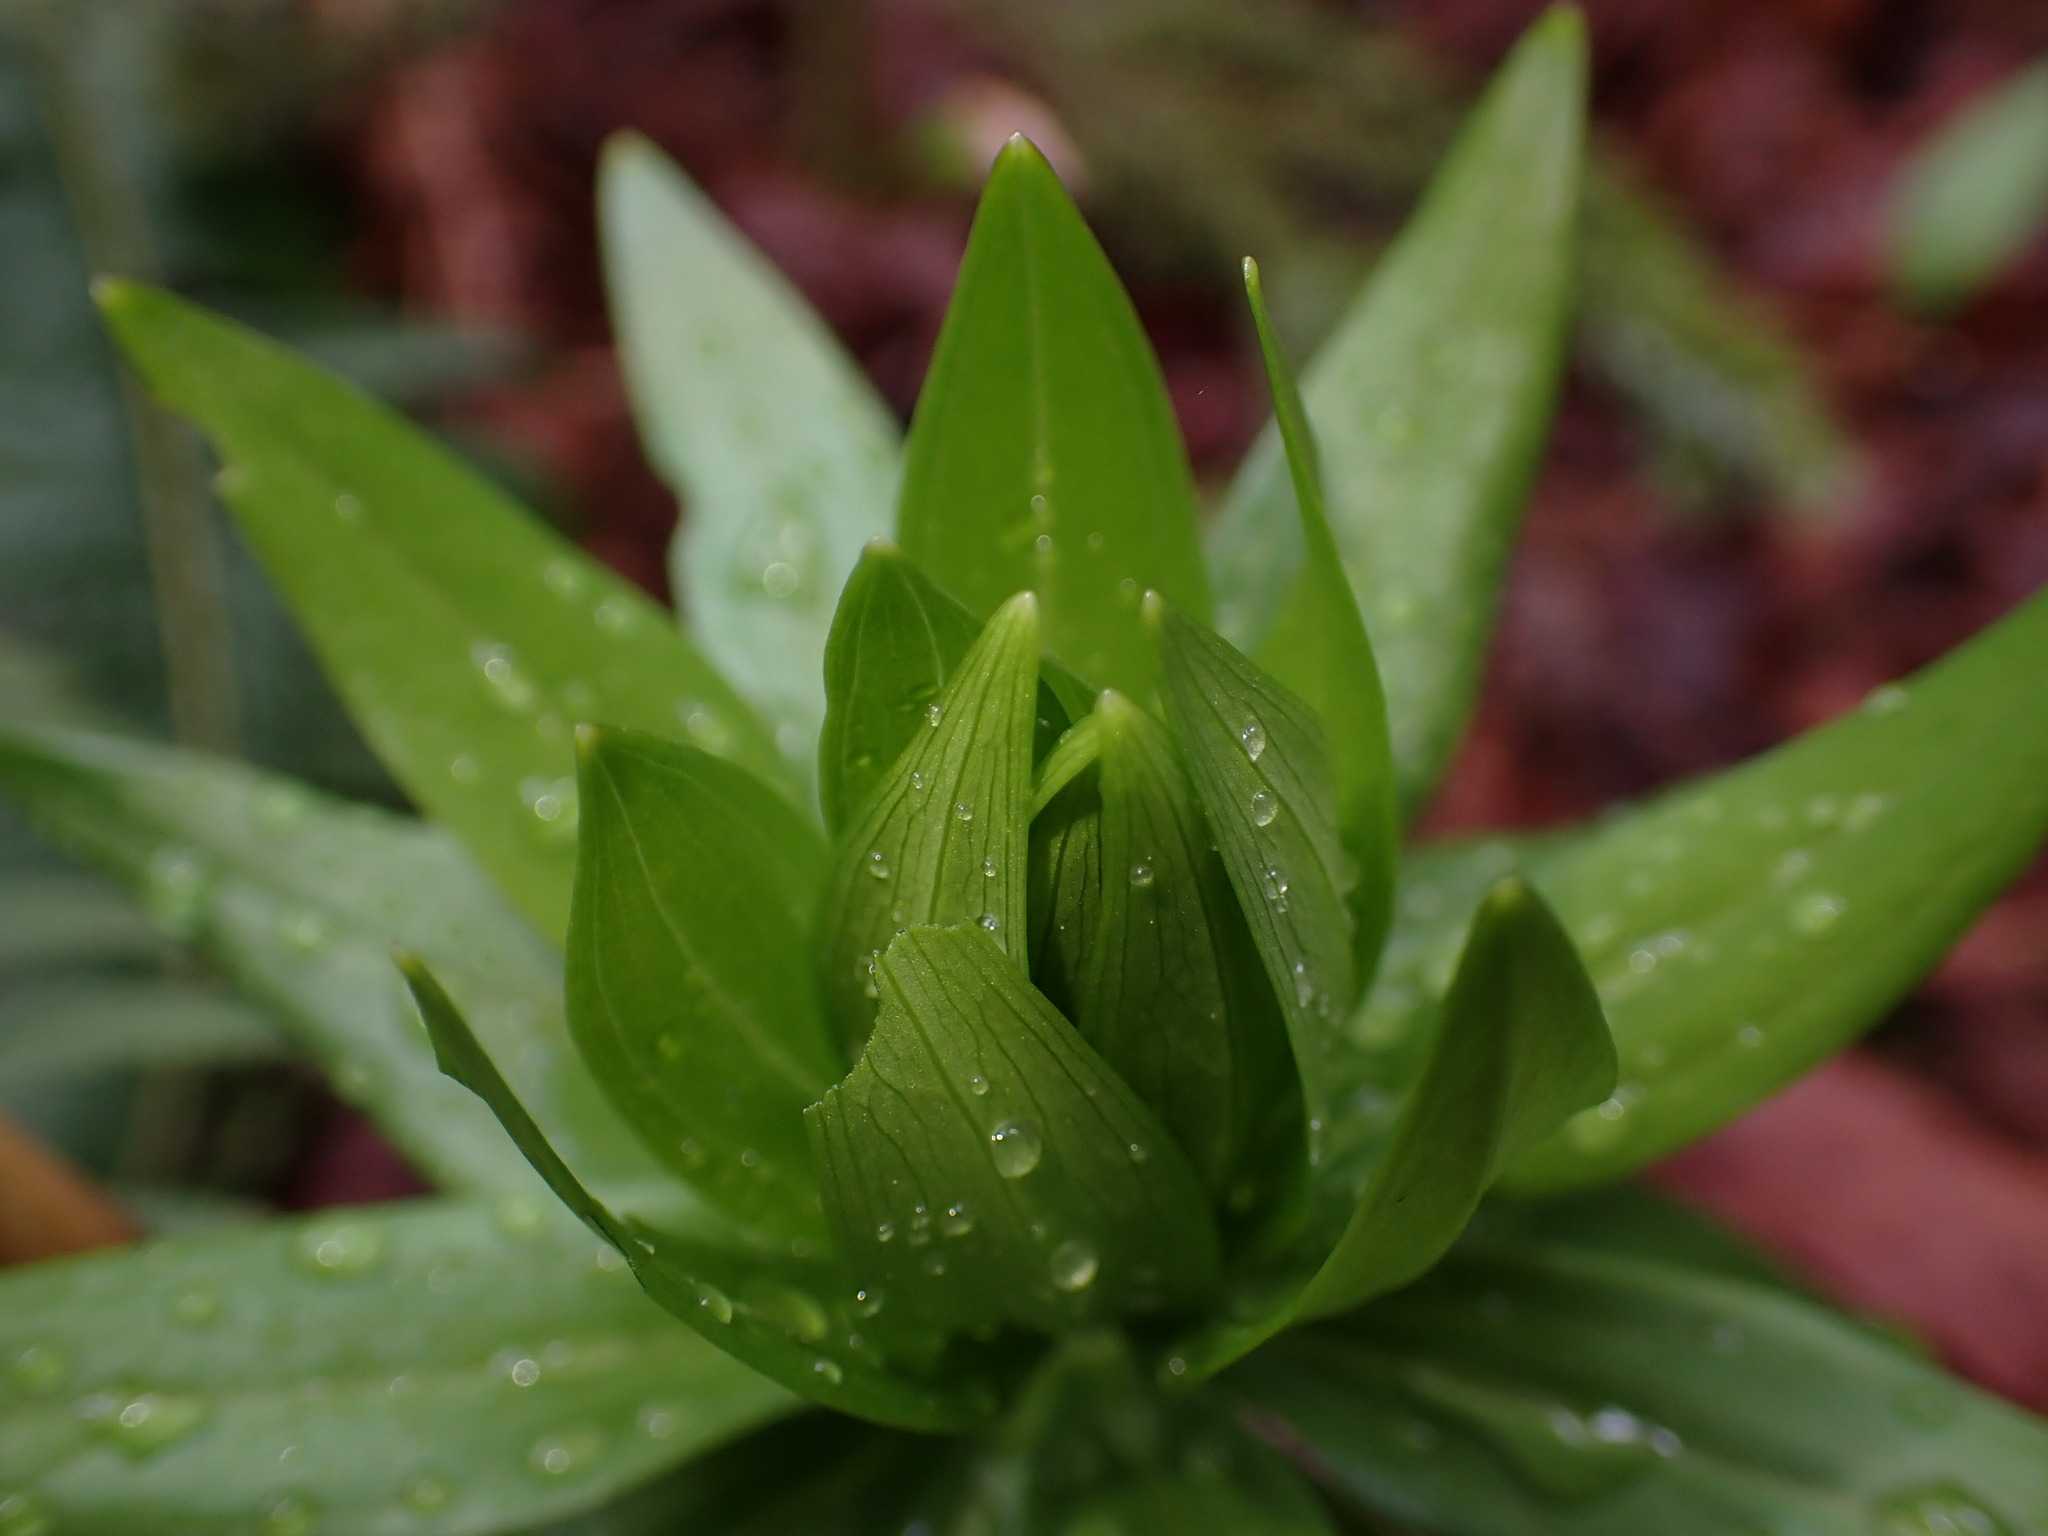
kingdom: Plantae
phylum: Tracheophyta
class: Liliopsida
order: Liliales
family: Liliaceae
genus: Lilium
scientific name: Lilium columbianum
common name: Columbia lily
